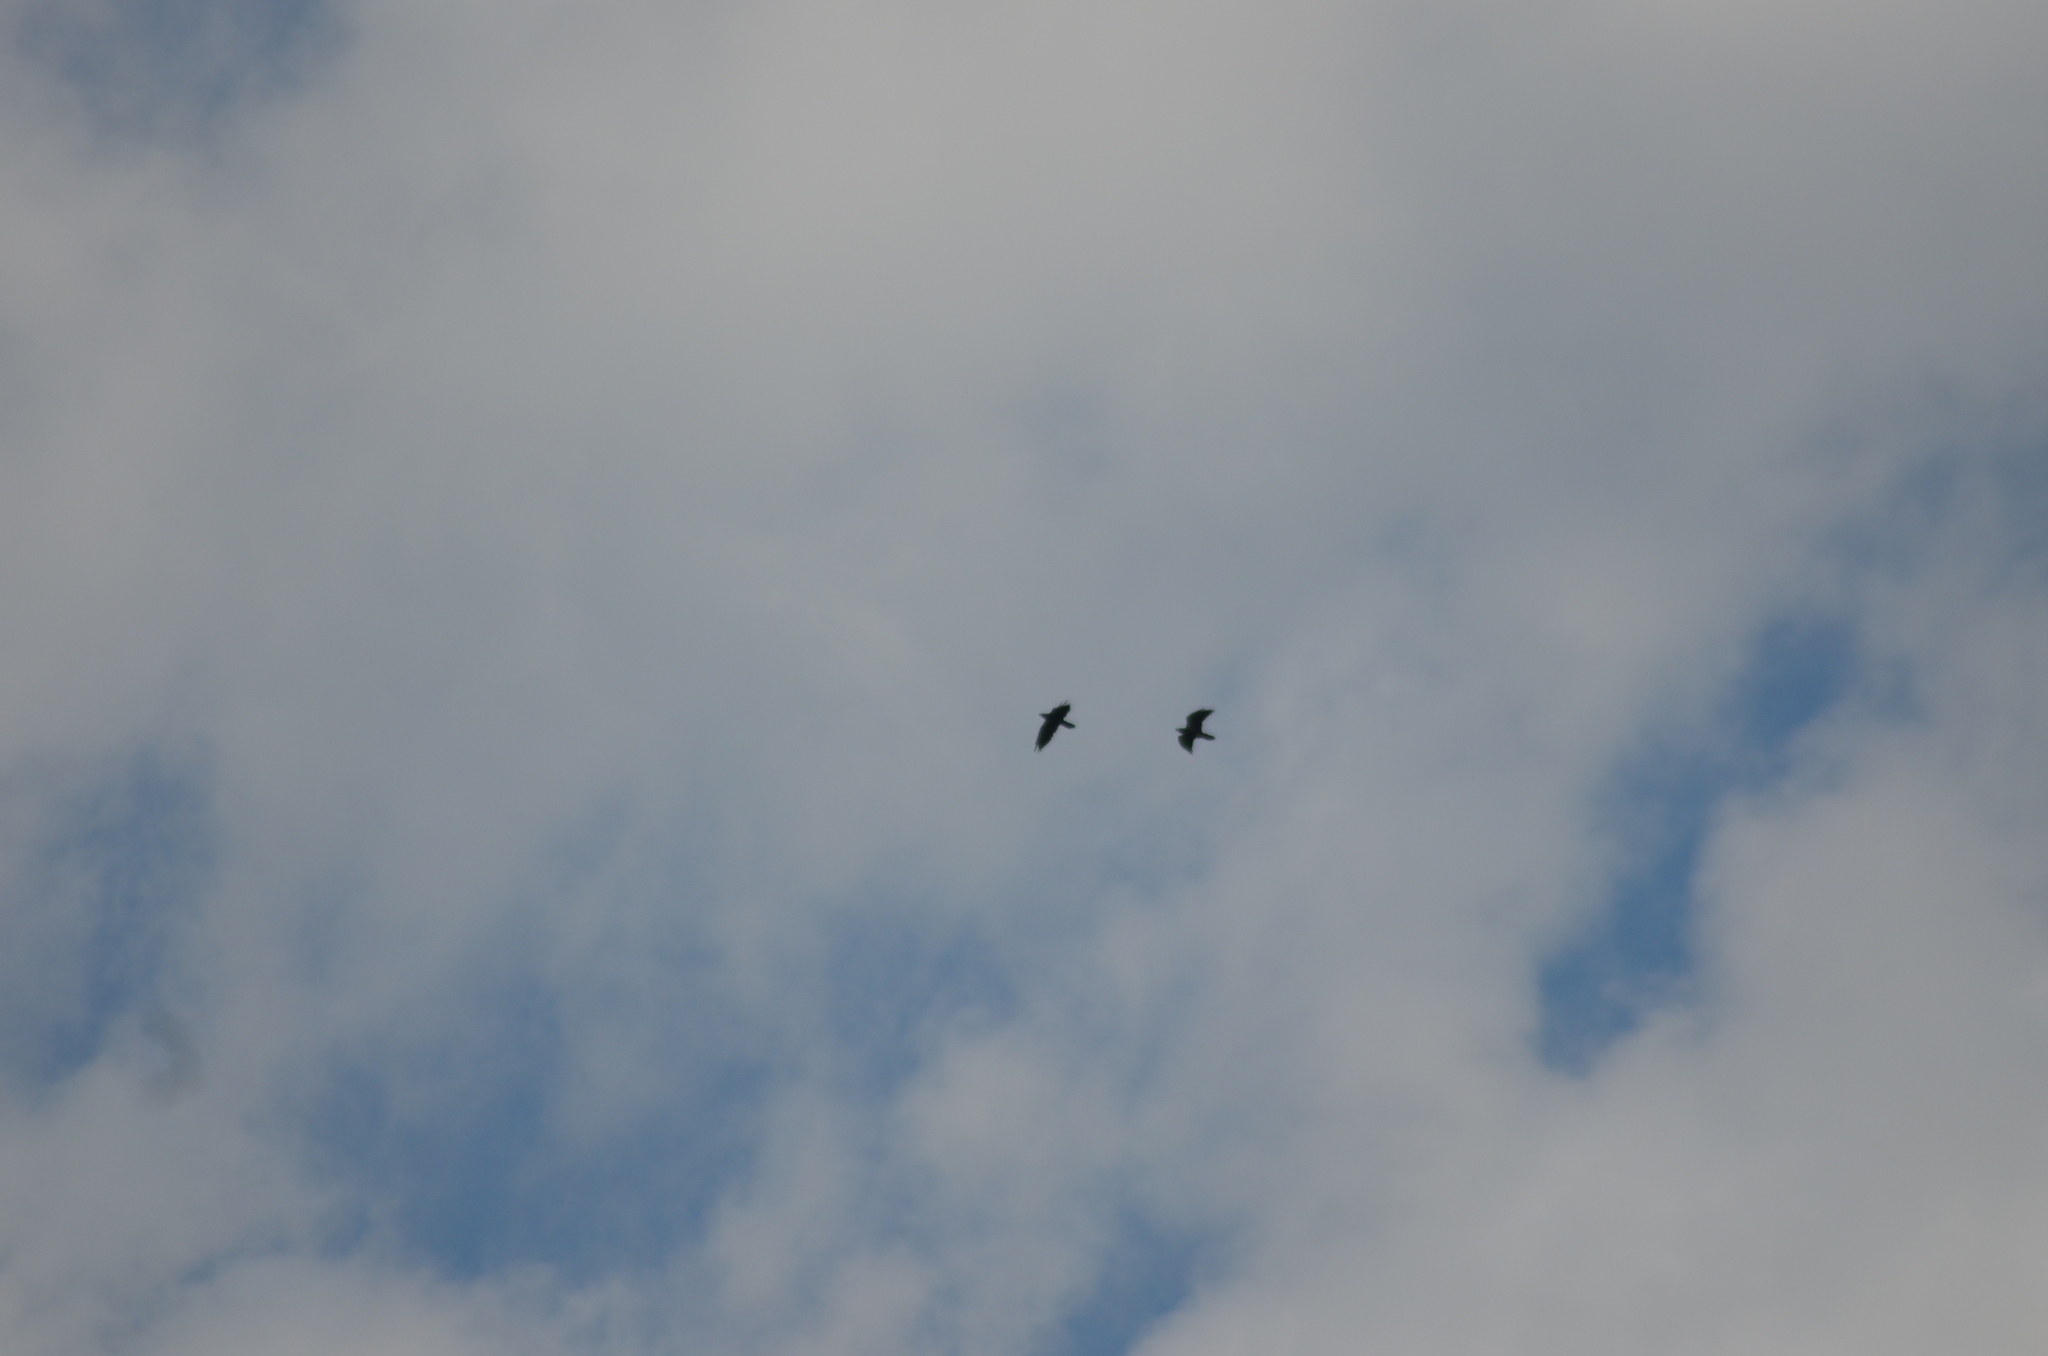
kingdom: Animalia
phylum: Chordata
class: Aves
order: Passeriformes
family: Corvidae
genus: Corvus
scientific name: Corvus corax
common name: Common raven
